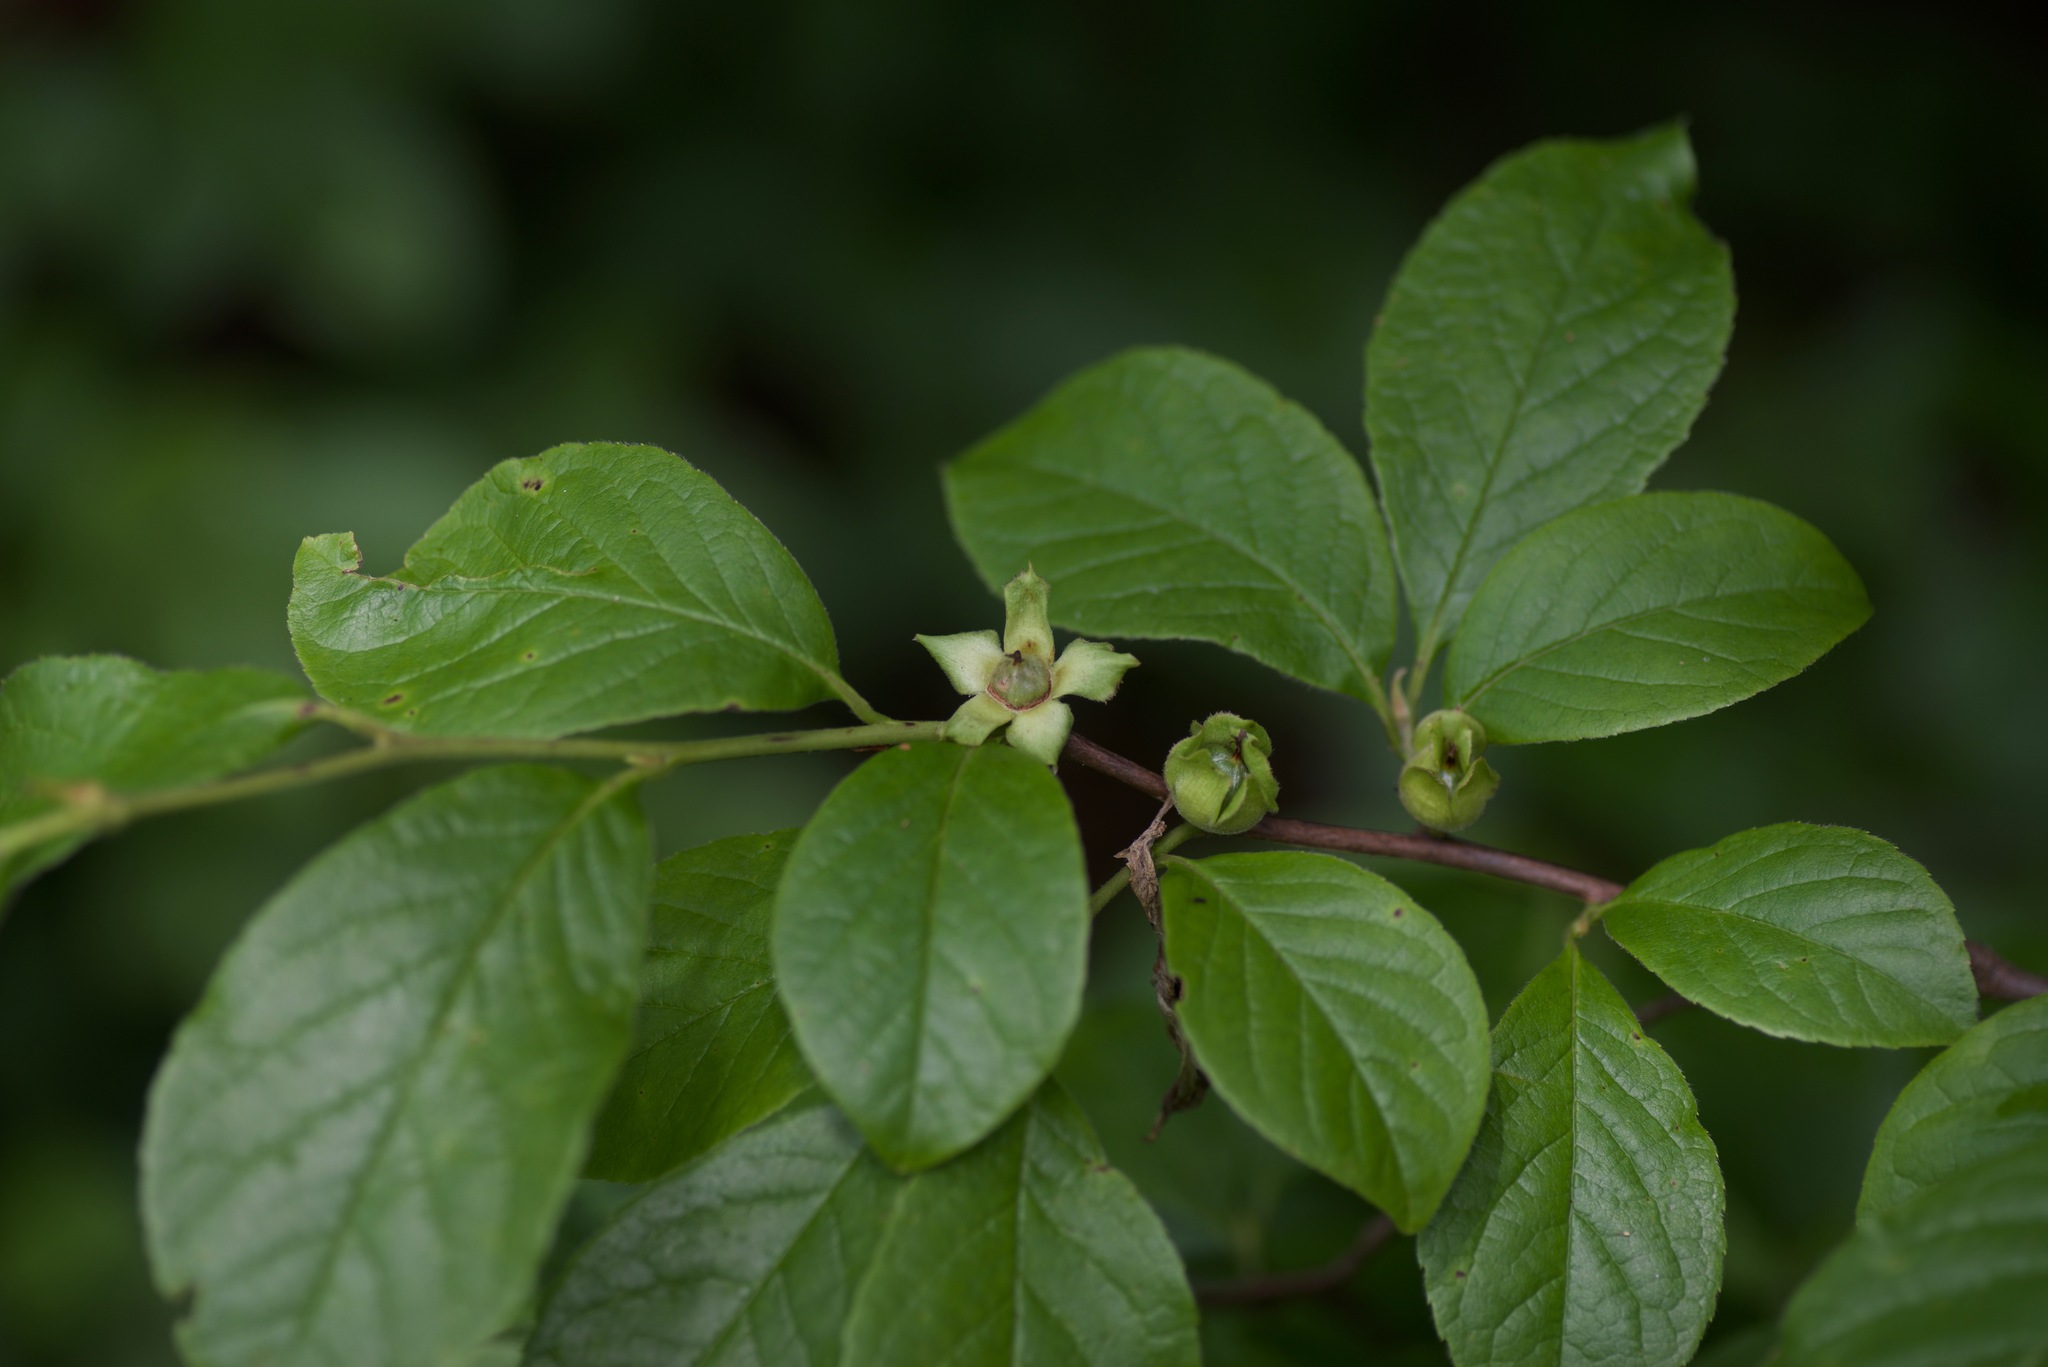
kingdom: Plantae
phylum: Tracheophyta
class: Magnoliopsida
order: Ericales
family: Theaceae
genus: Stewartia
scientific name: Stewartia malacodendron
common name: Virginia stewartia
